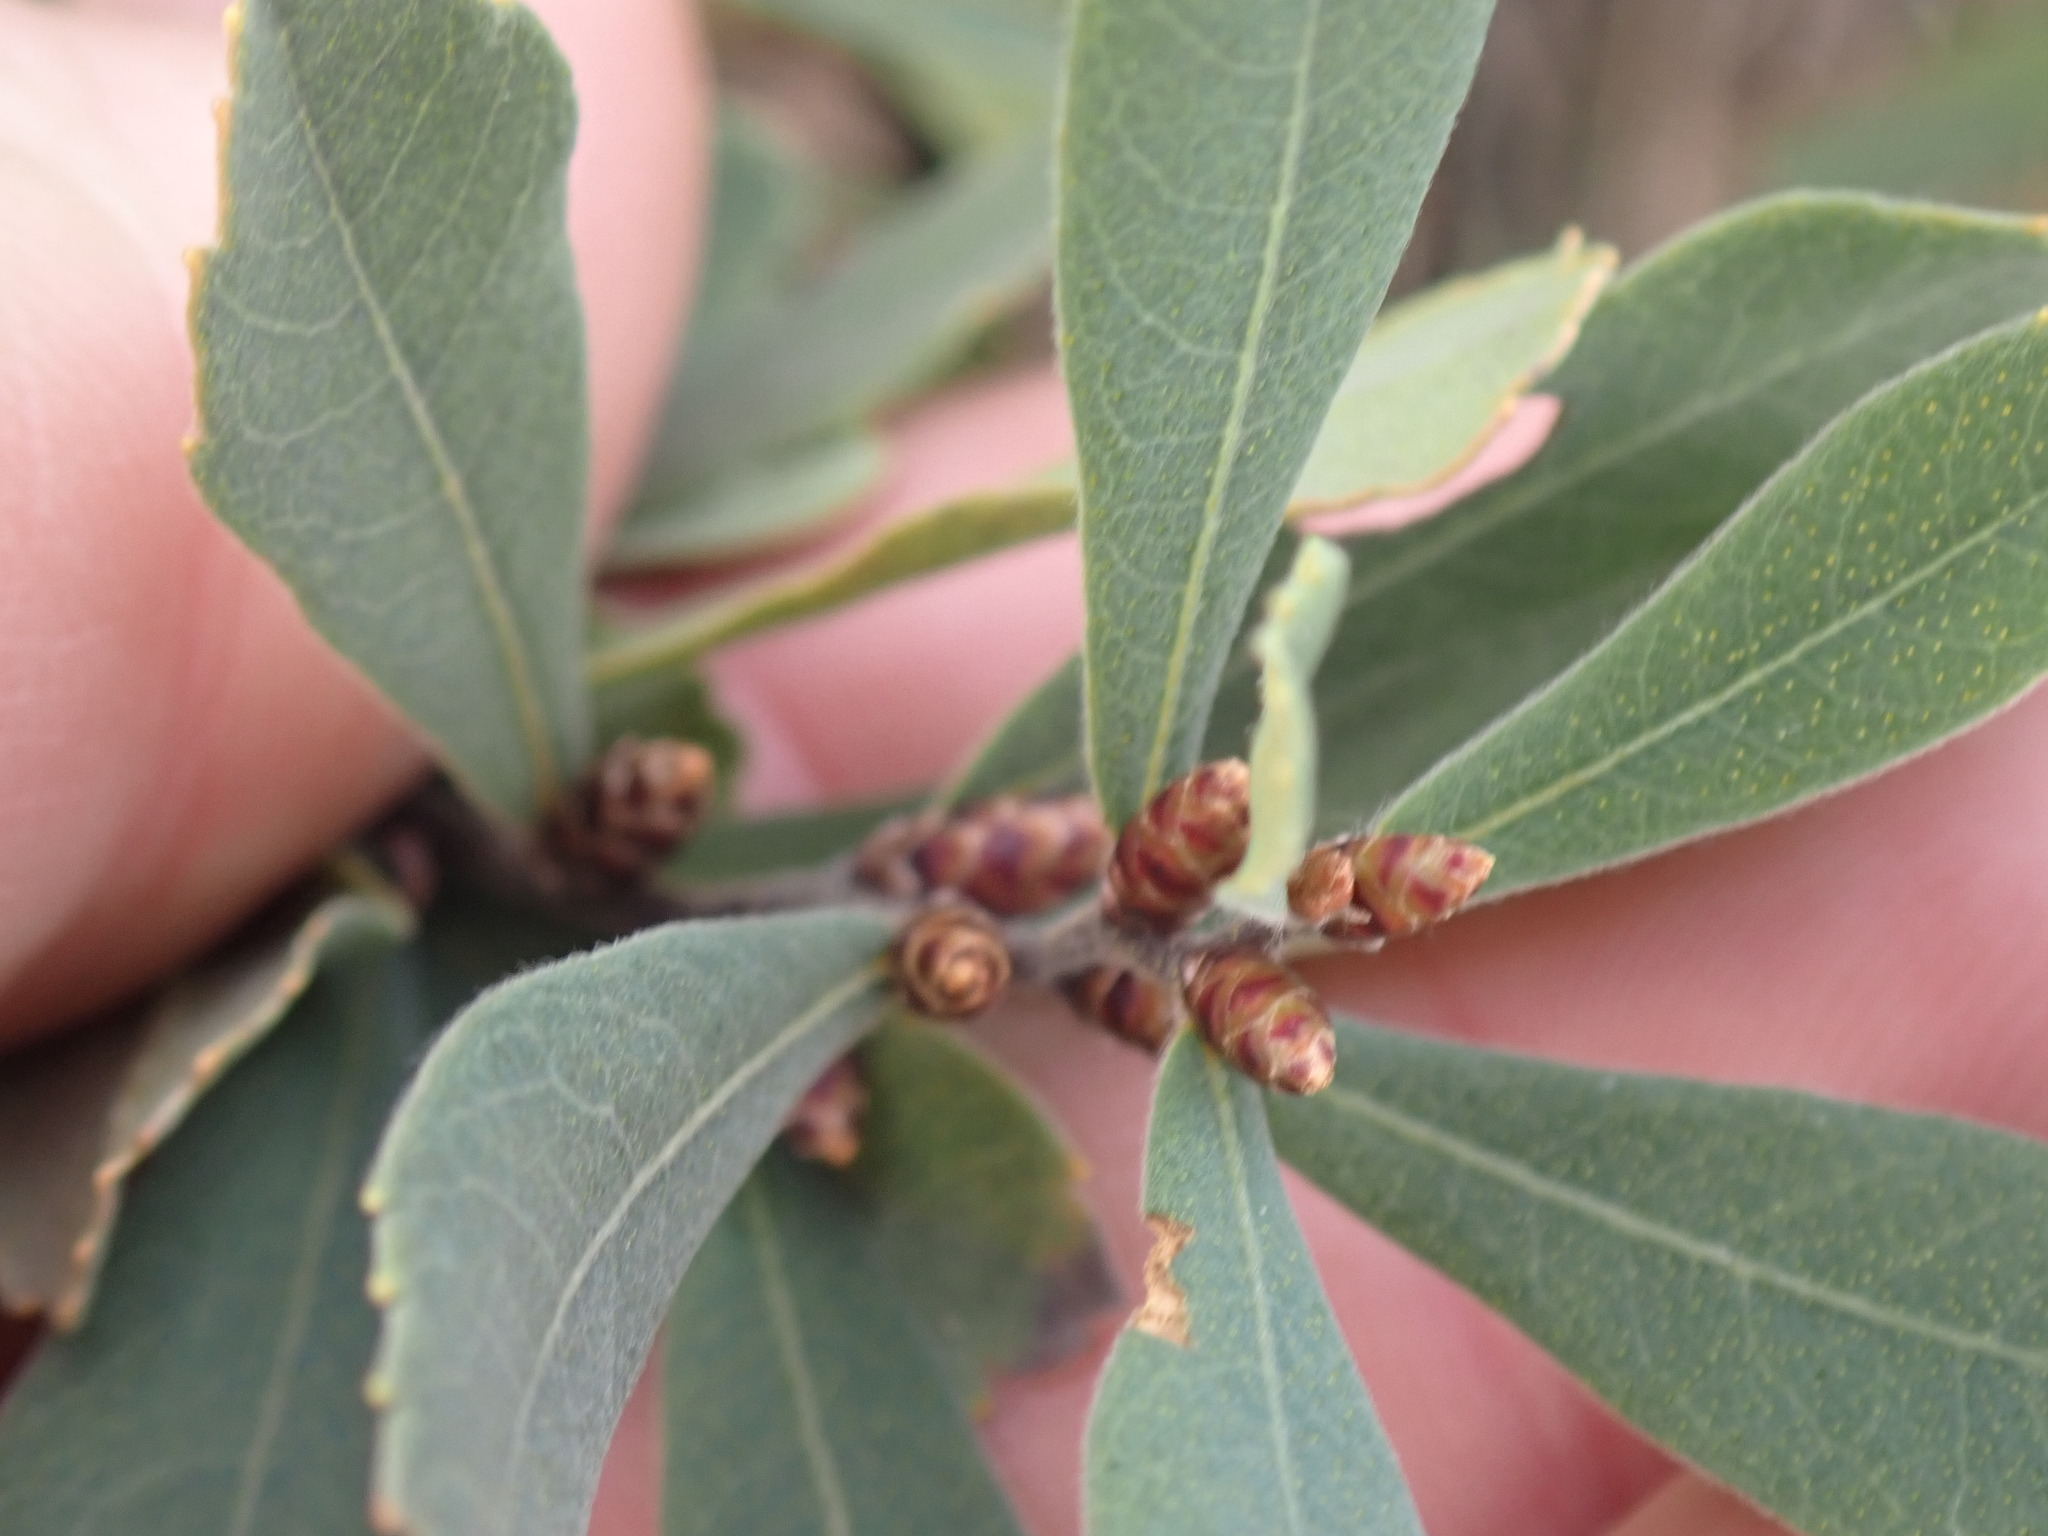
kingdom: Plantae
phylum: Tracheophyta
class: Magnoliopsida
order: Fagales
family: Myricaceae
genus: Myrica
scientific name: Myrica gale
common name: Sweet gale
